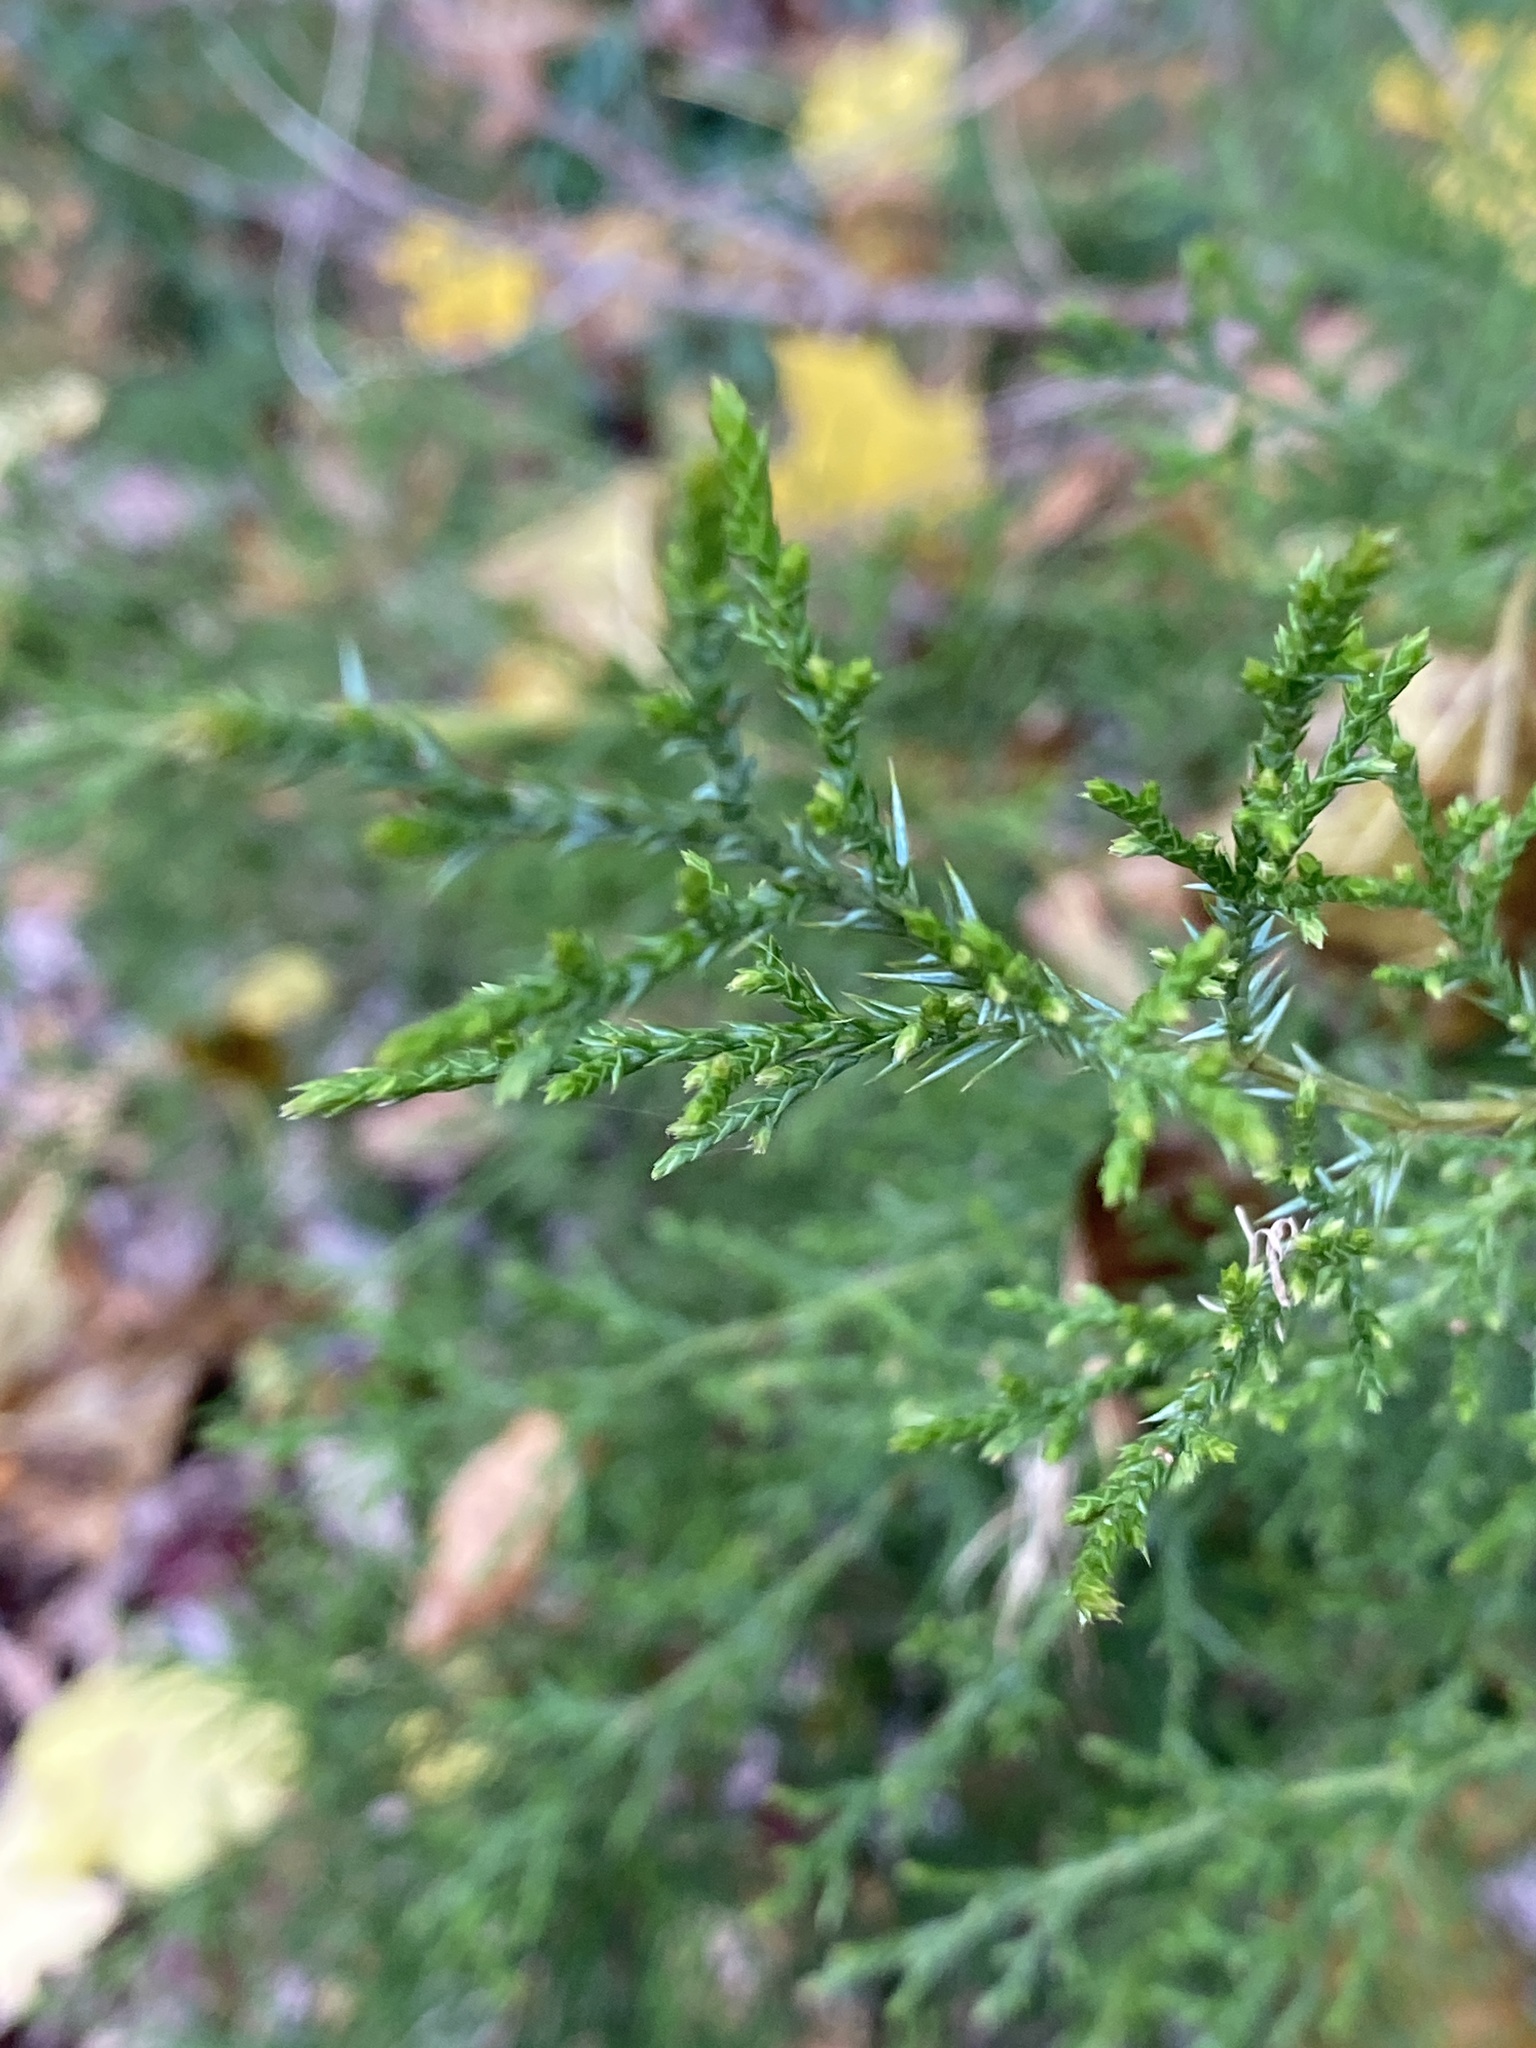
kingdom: Plantae
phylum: Tracheophyta
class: Pinopsida
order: Pinales
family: Cupressaceae
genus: Juniperus
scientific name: Juniperus virginiana
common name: Red juniper
